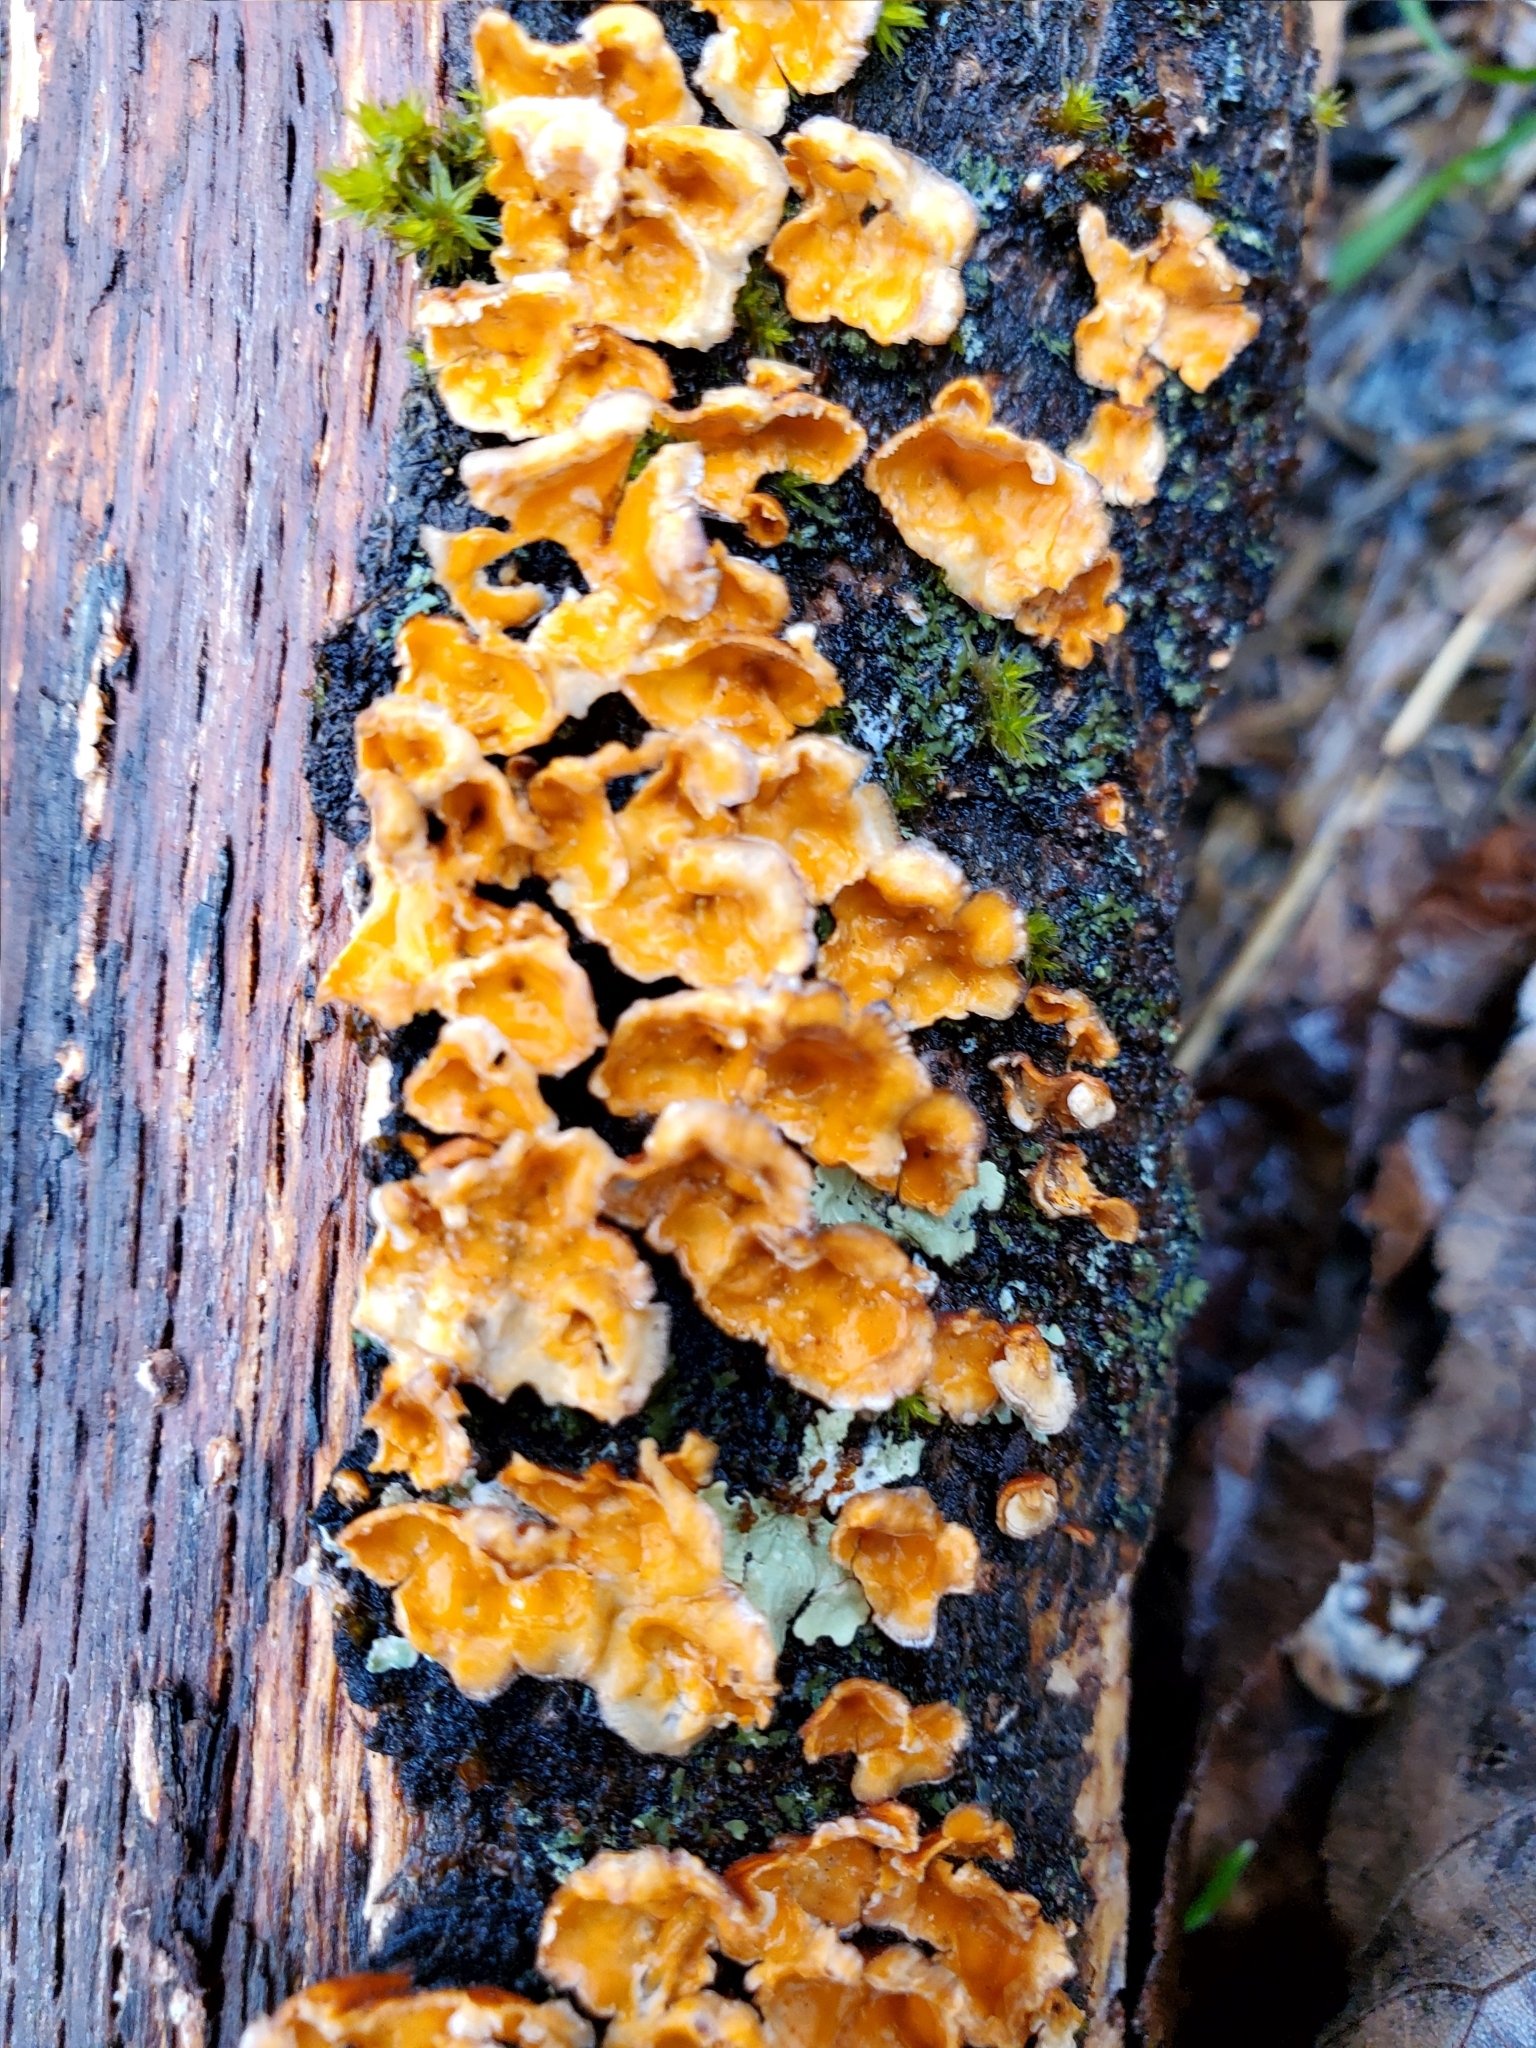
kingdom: Fungi
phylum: Basidiomycota
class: Agaricomycetes
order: Russulales
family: Stereaceae
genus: Stereum
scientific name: Stereum complicatum
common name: Crowded parchment
